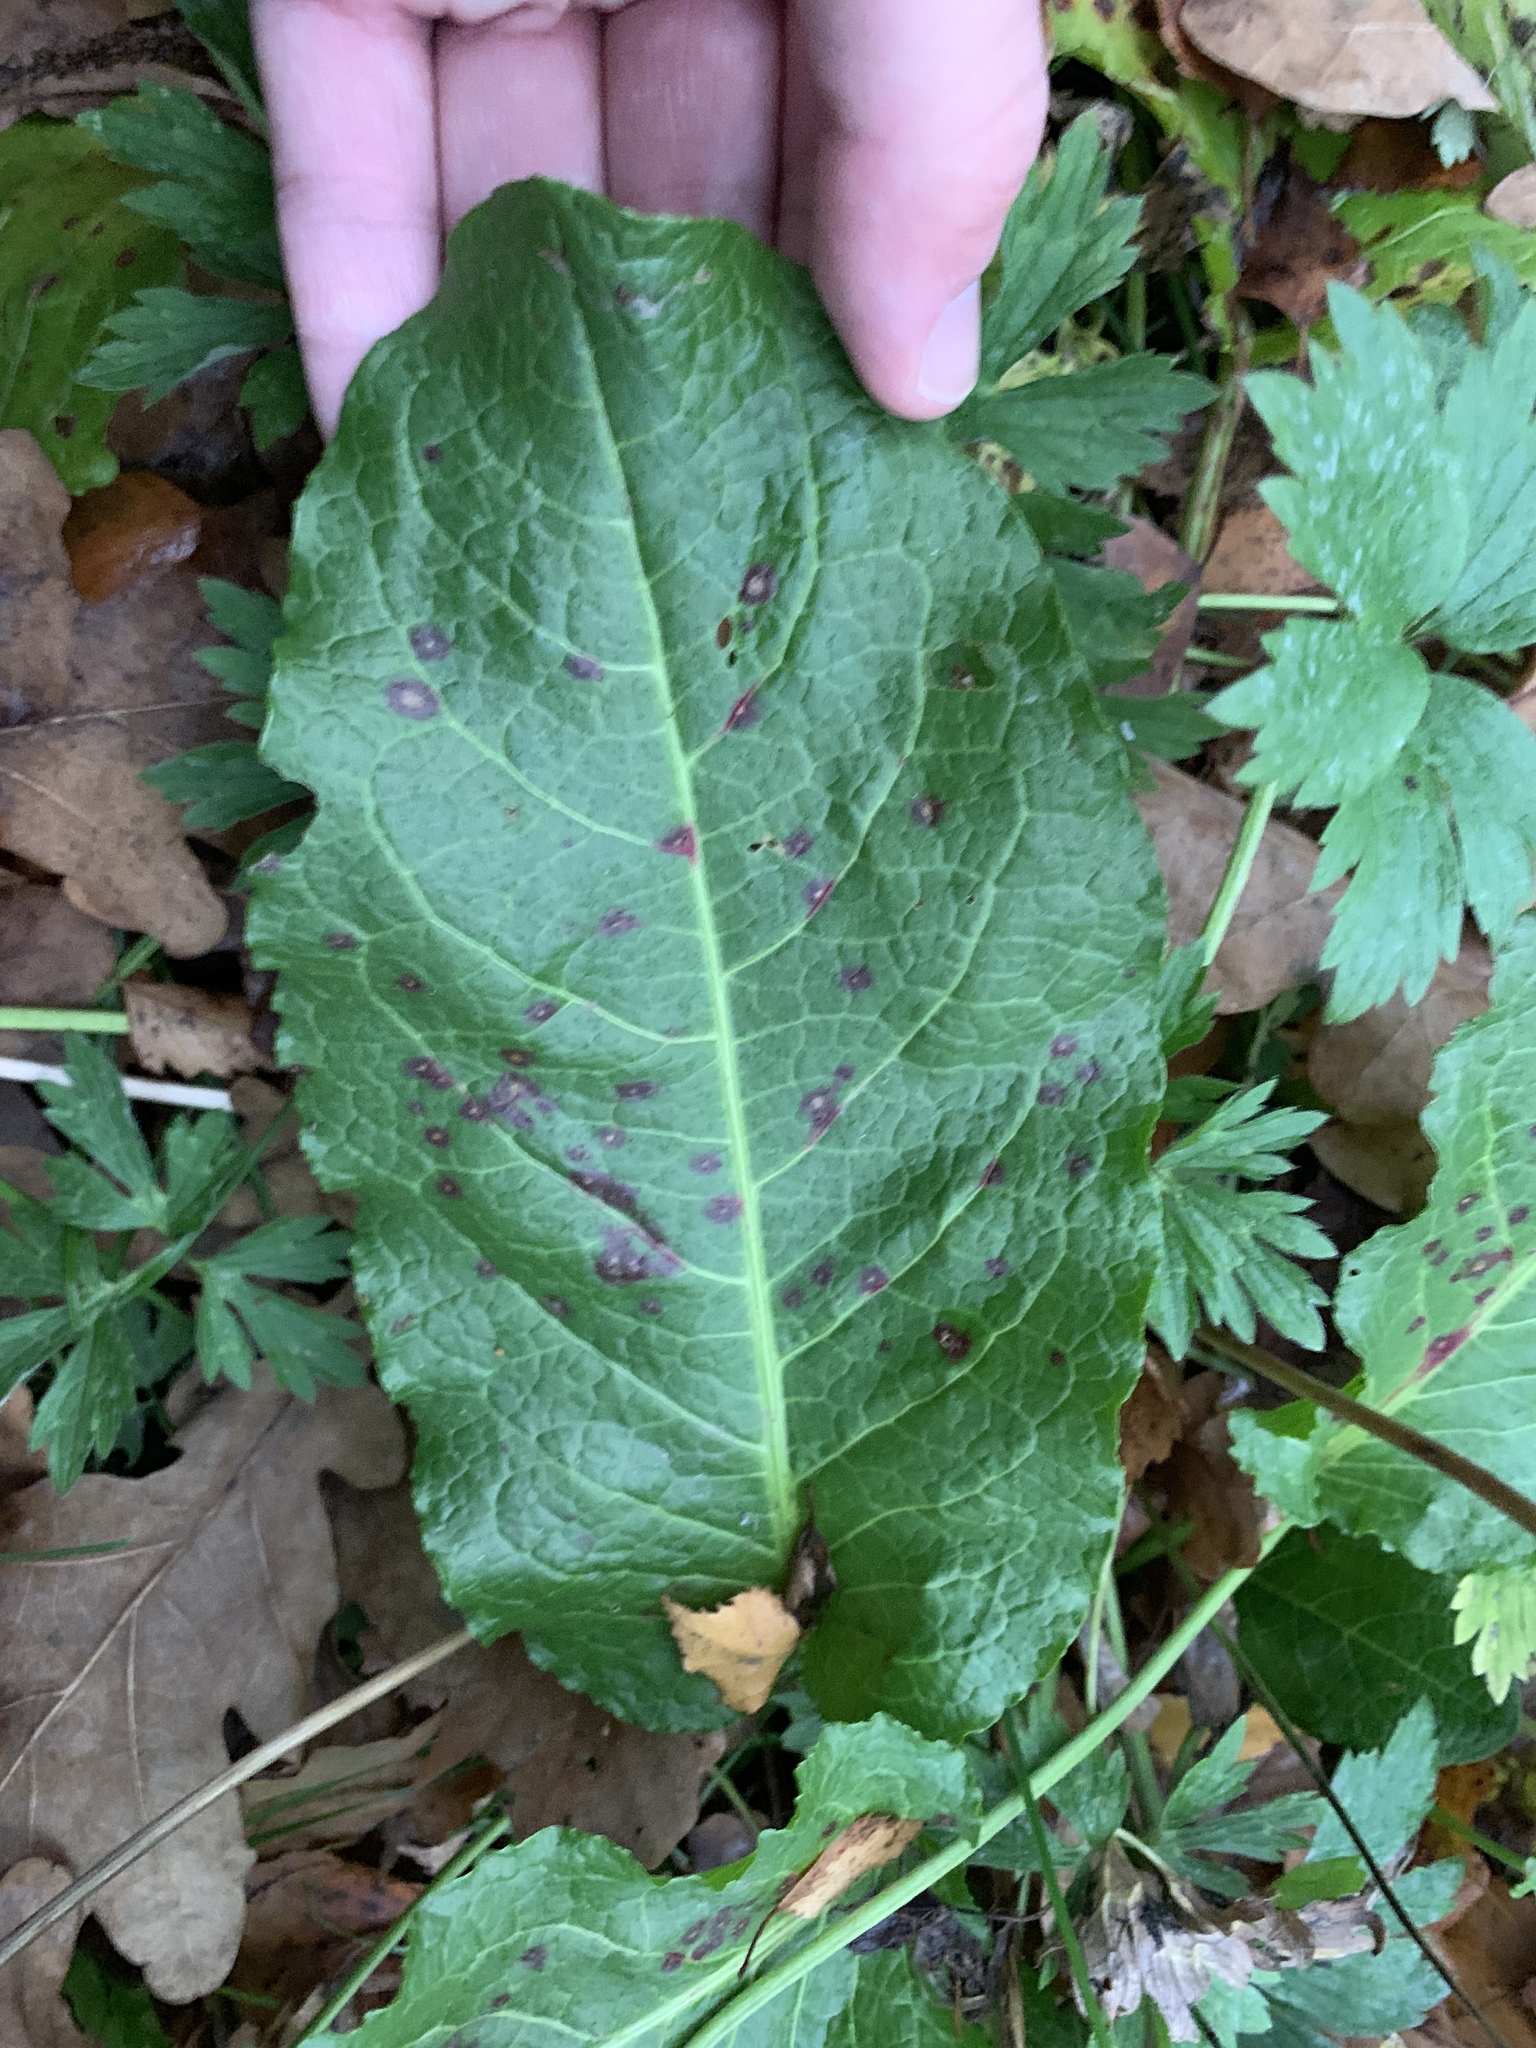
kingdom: Plantae
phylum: Tracheophyta
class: Magnoliopsida
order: Caryophyllales
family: Polygonaceae
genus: Rumex
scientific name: Rumex obtusifolius
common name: Bitter dock
